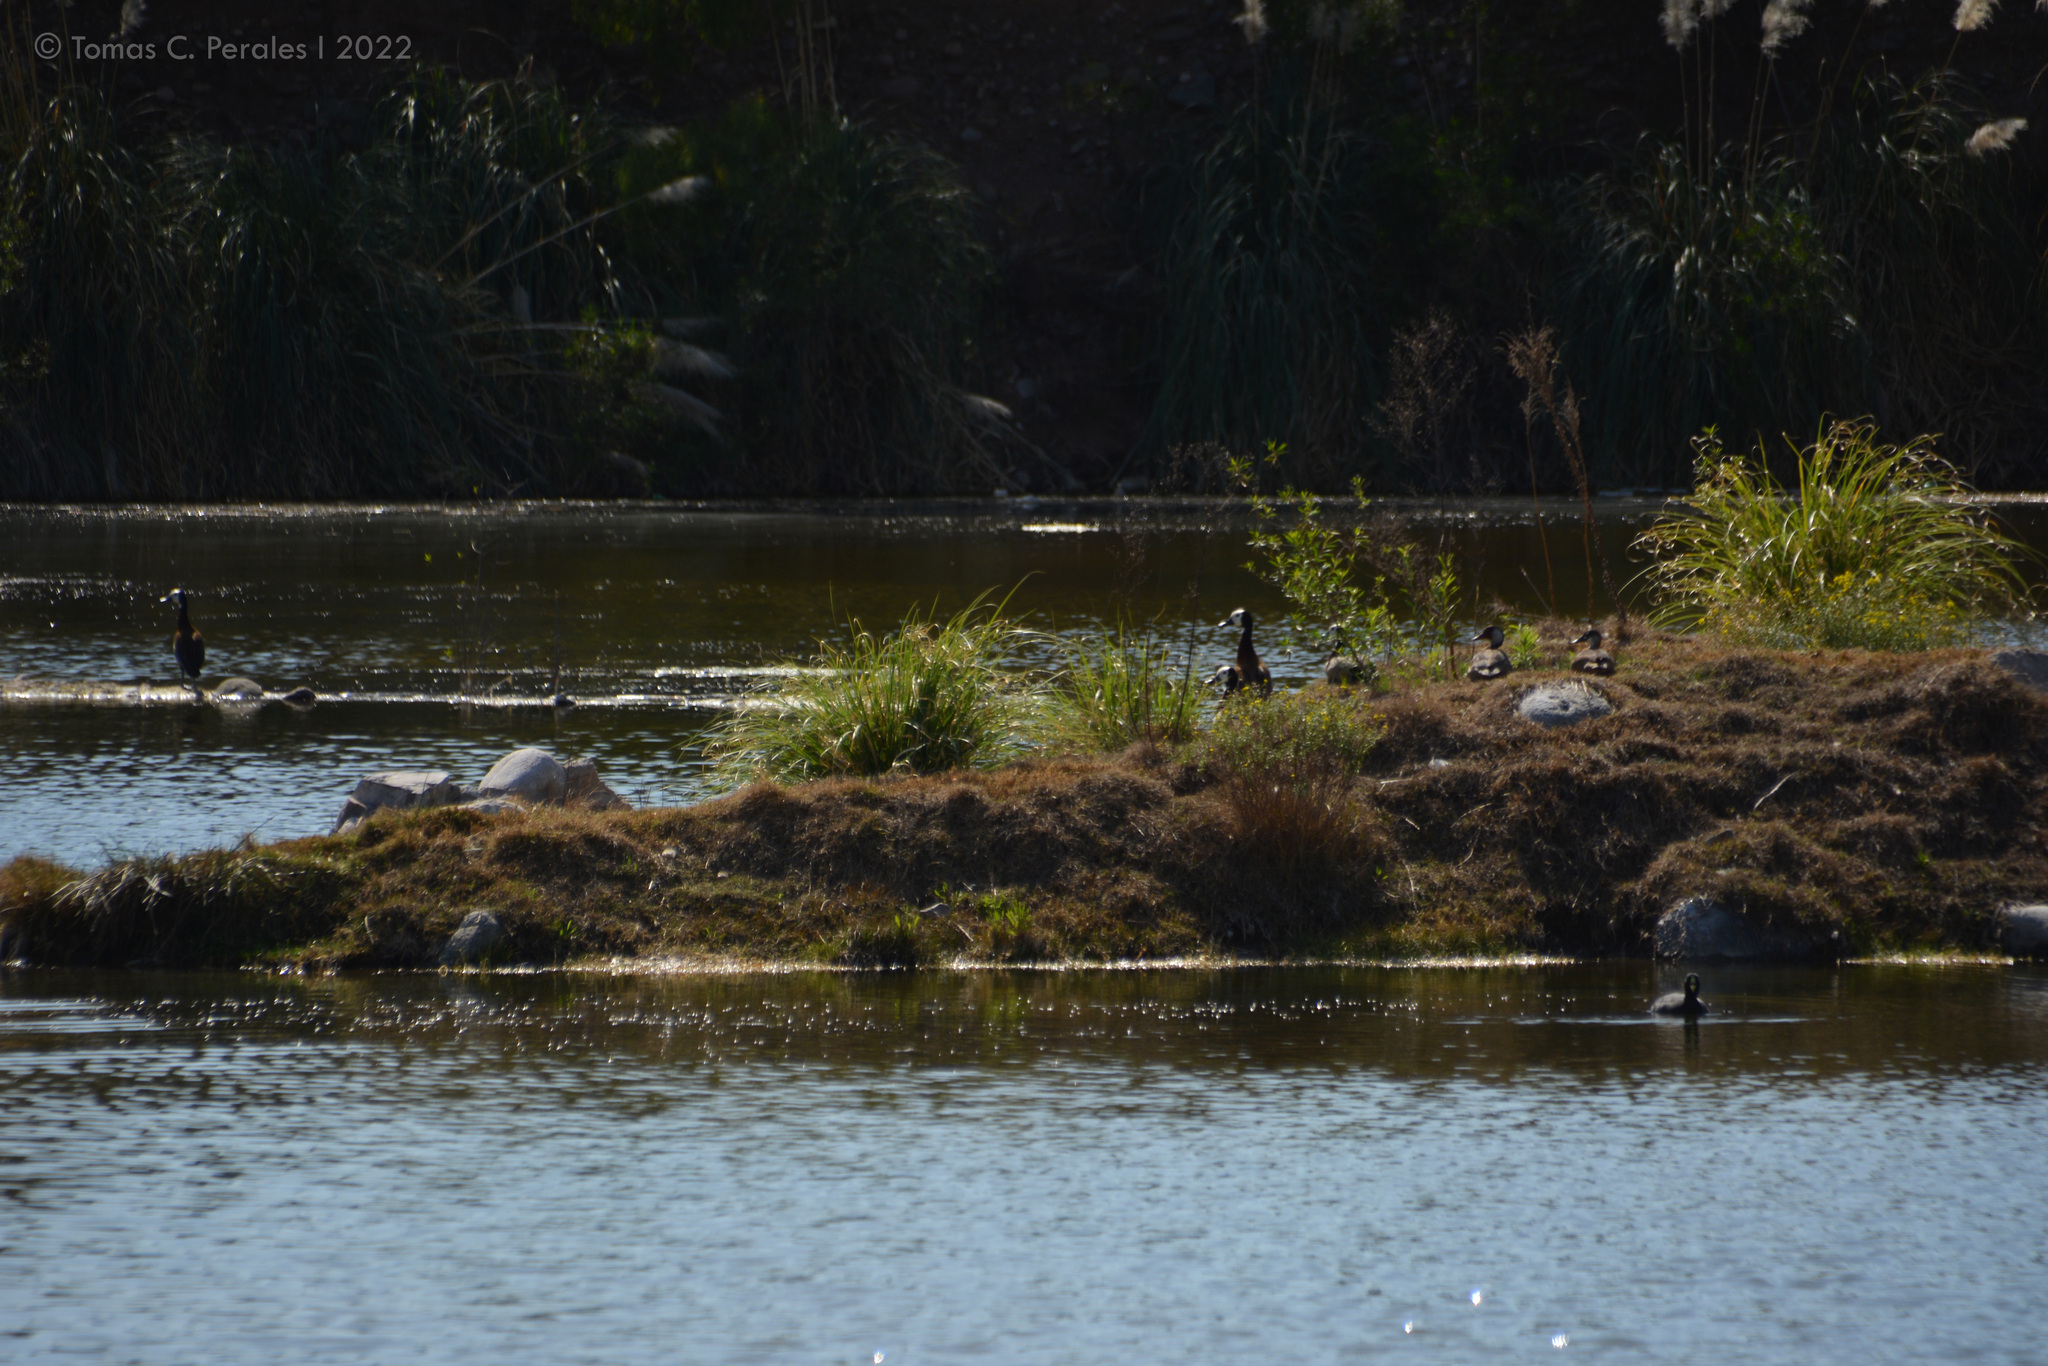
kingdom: Animalia
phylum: Chordata
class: Aves
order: Anseriformes
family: Anatidae
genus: Dendrocygna
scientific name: Dendrocygna viduata
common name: White-faced whistling duck
